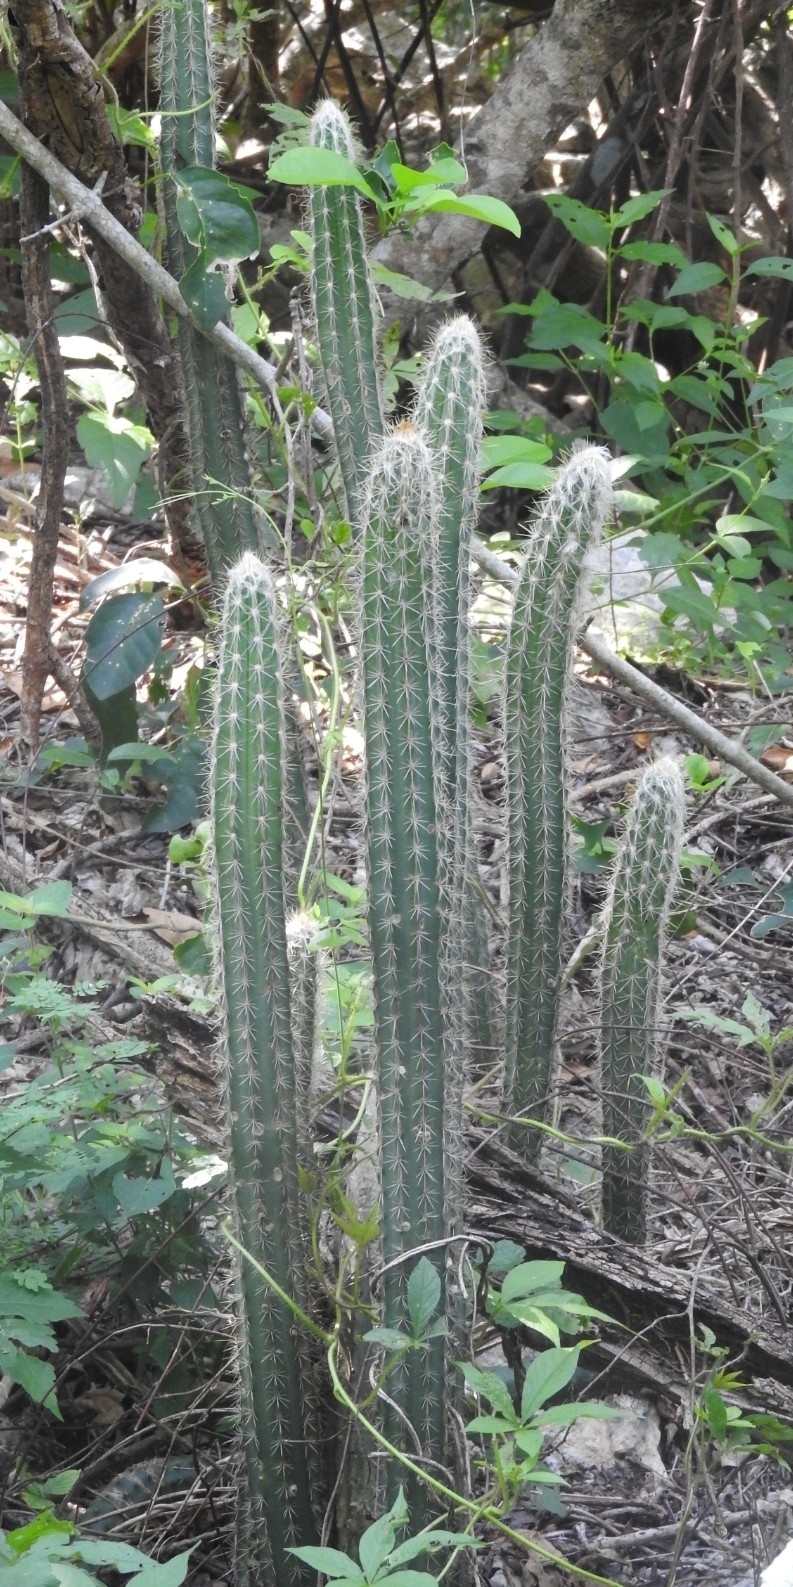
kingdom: Plantae
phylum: Tracheophyta
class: Magnoliopsida
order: Caryophyllales
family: Cactaceae
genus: Pilosocereus
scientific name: Pilosocereus purpusii
